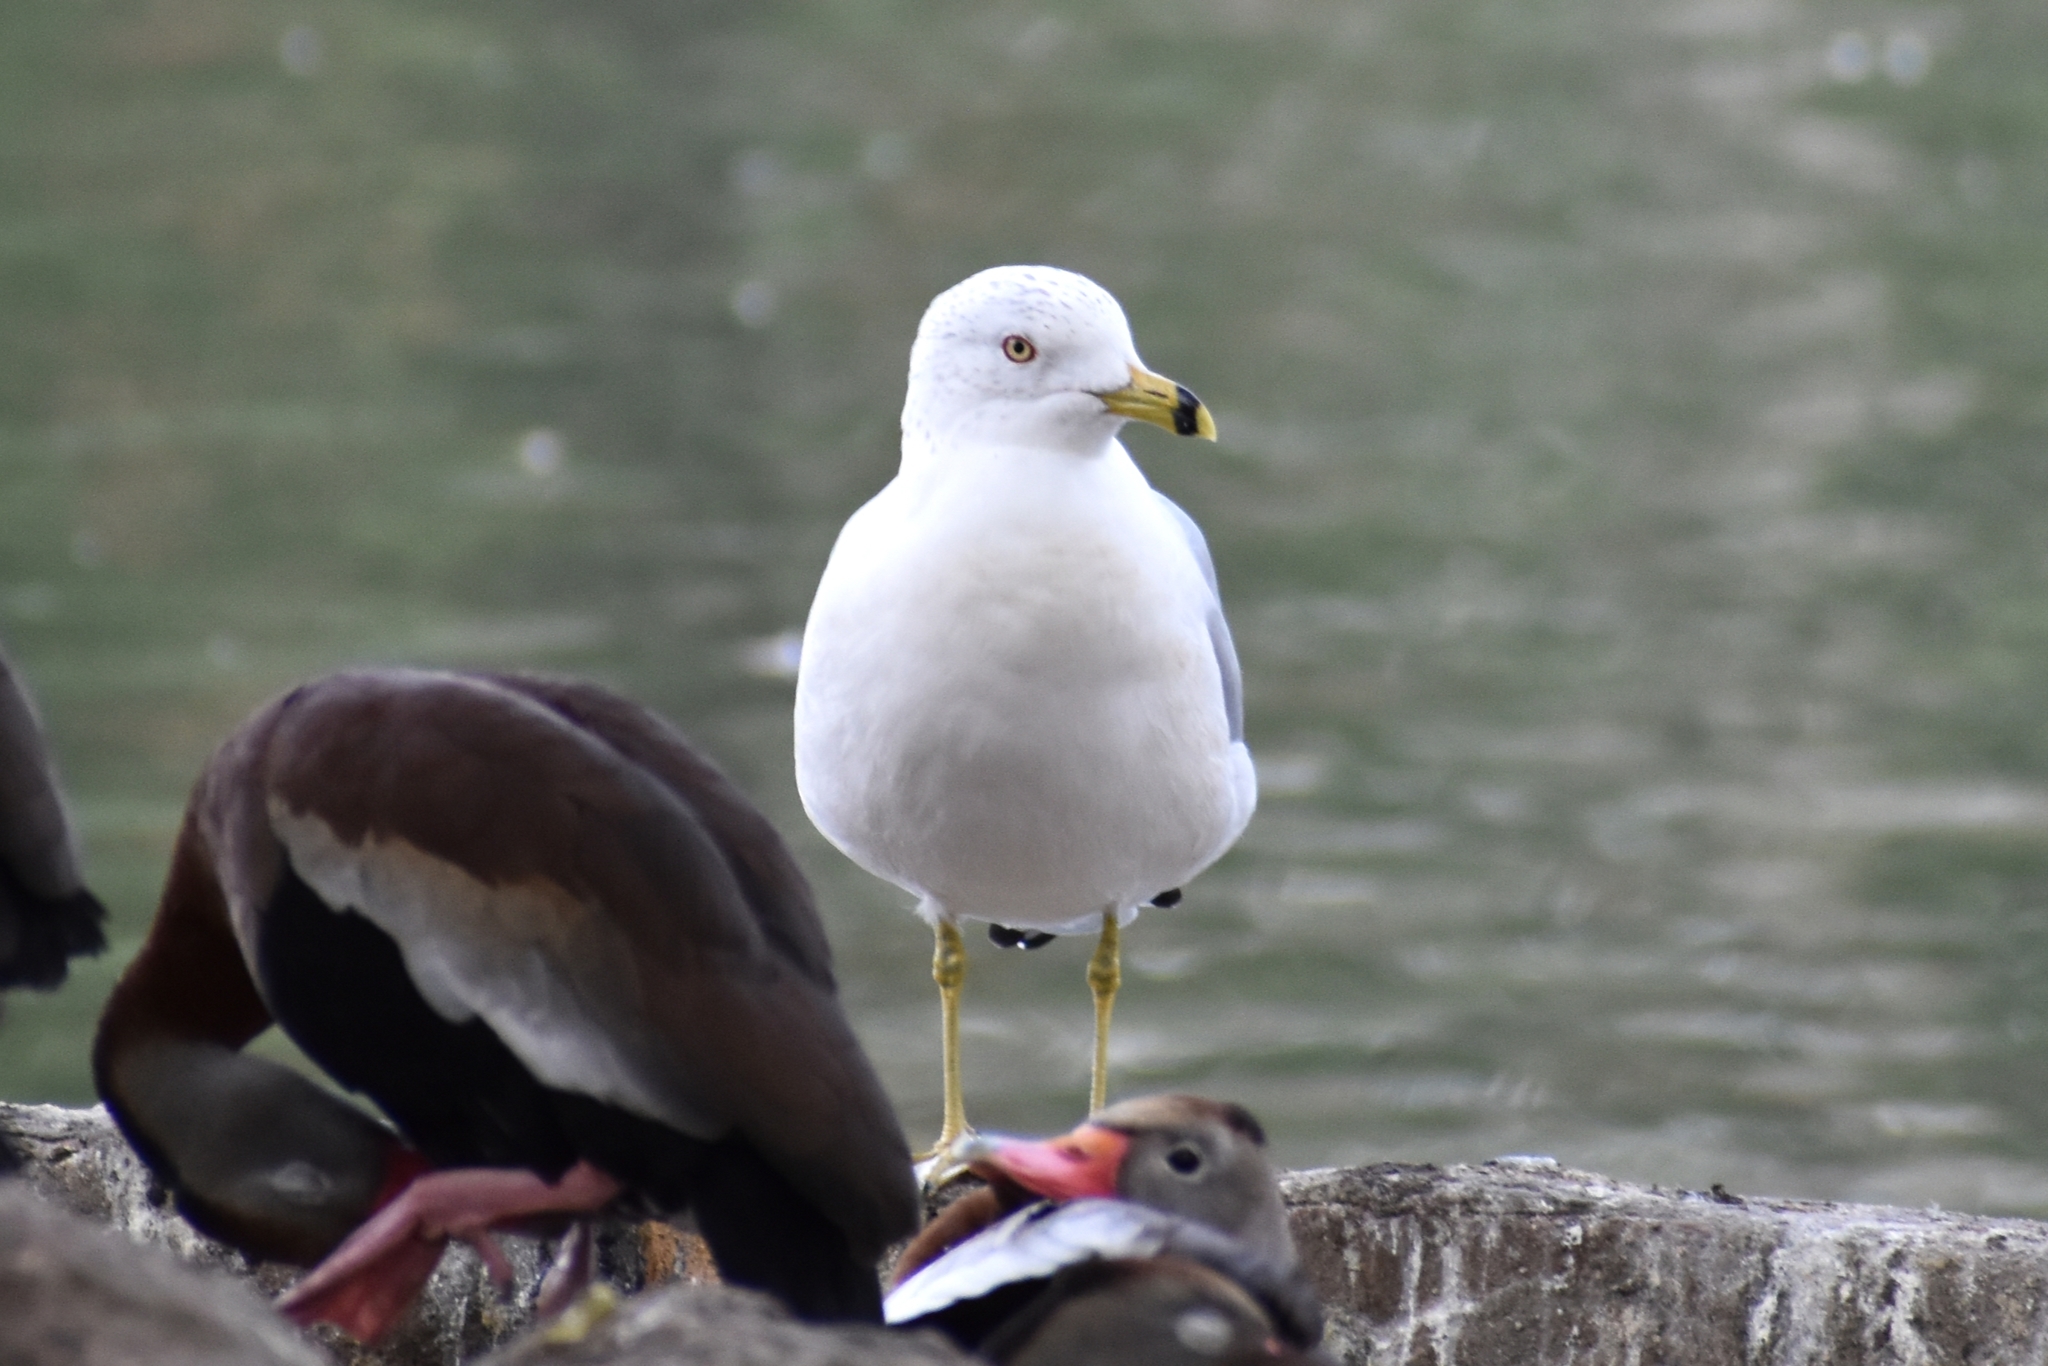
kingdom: Animalia
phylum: Chordata
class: Aves
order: Charadriiformes
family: Laridae
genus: Larus
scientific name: Larus delawarensis
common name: Ring-billed gull
